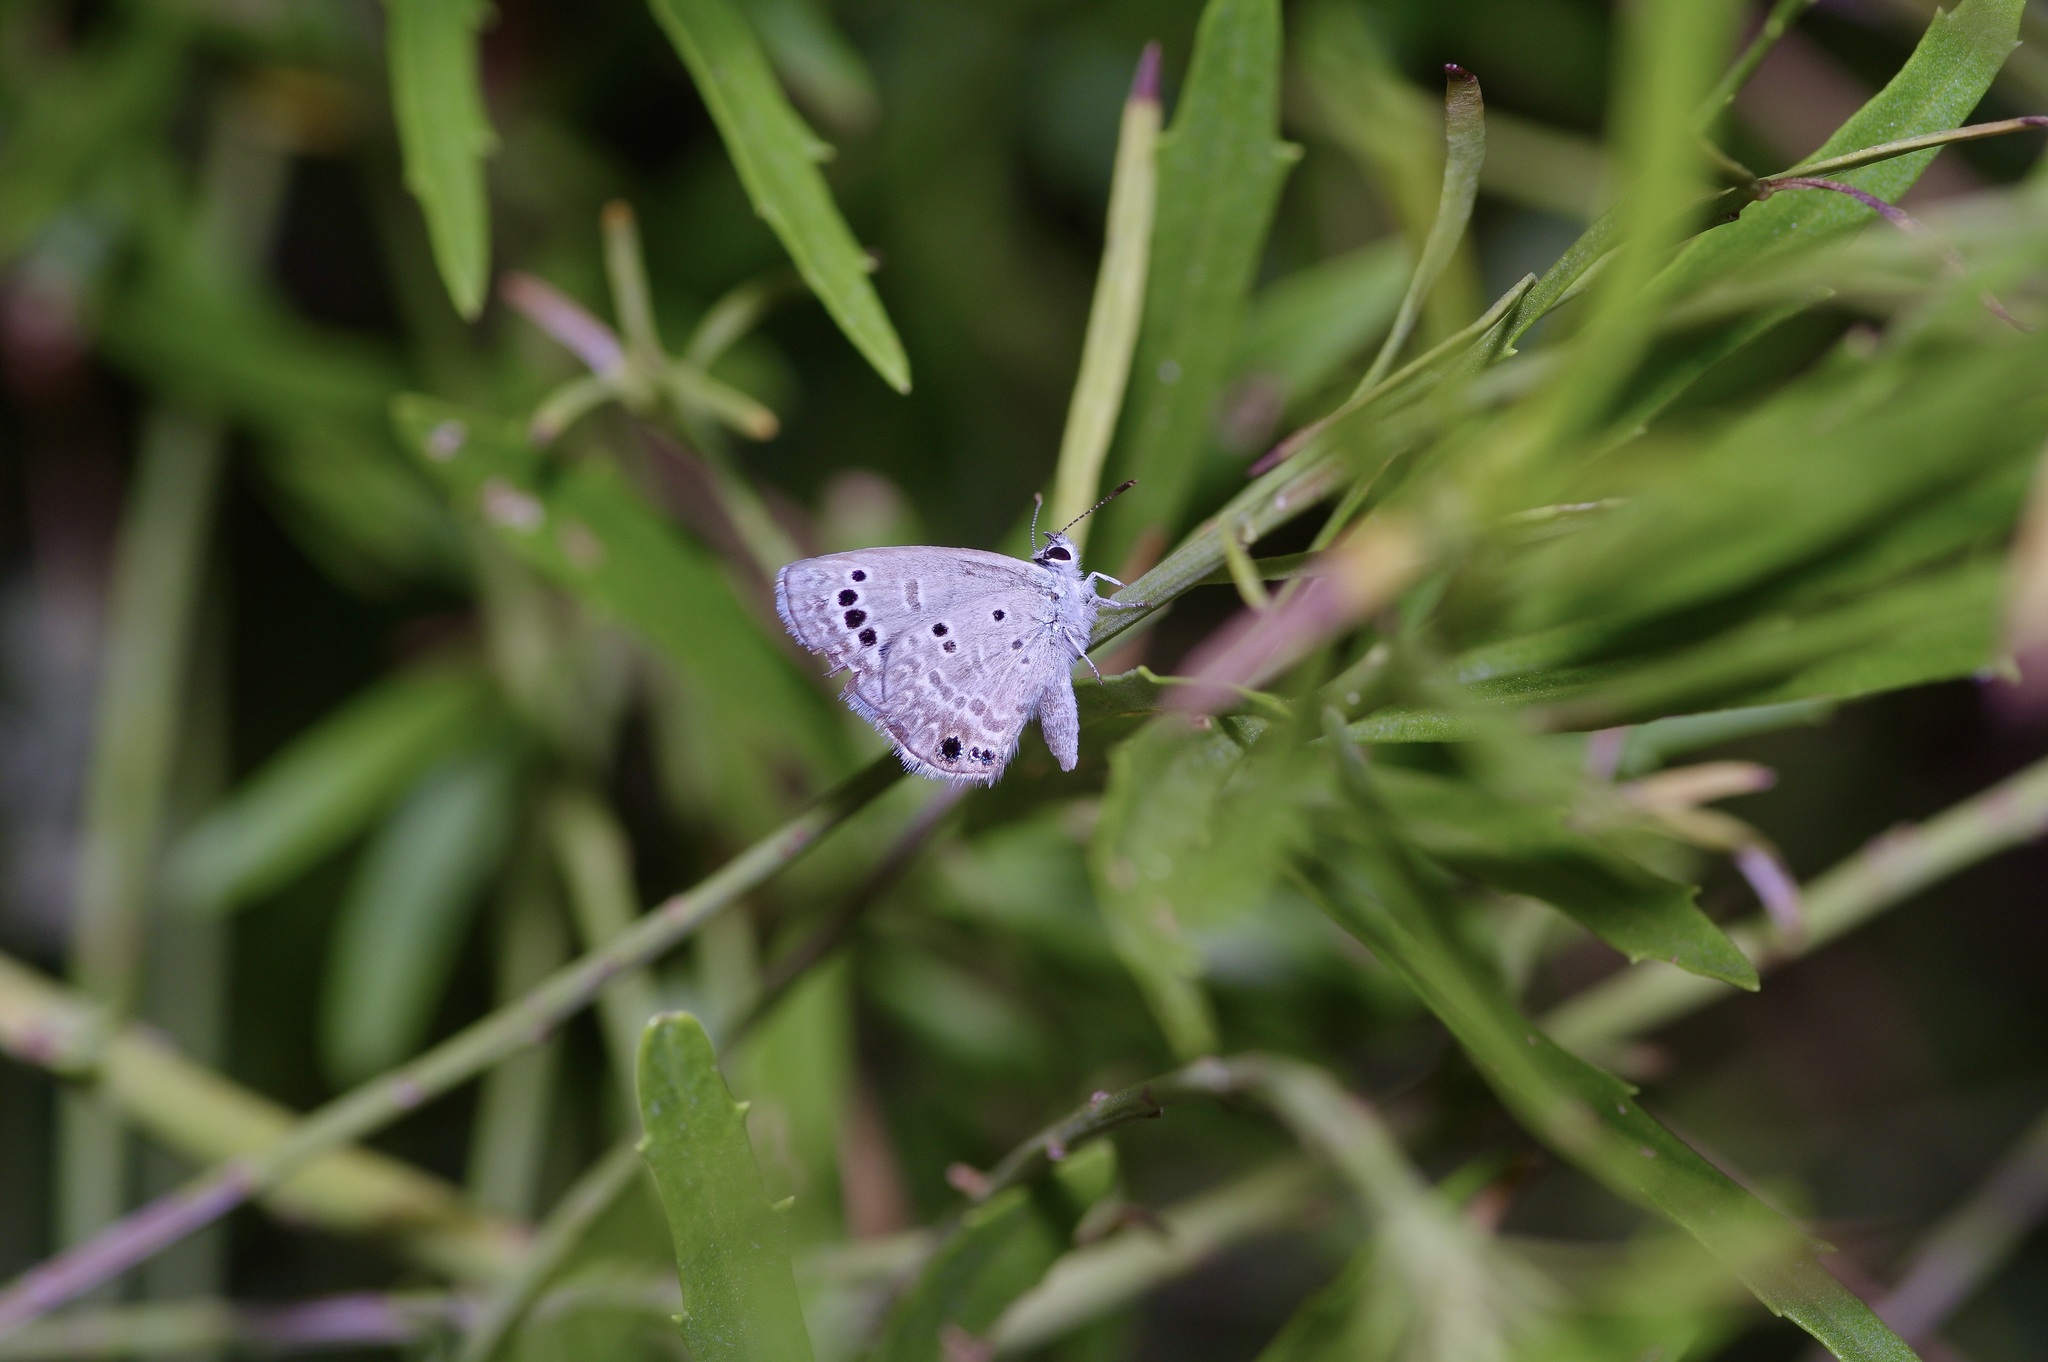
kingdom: Animalia
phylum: Arthropoda
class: Insecta
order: Lepidoptera
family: Lycaenidae
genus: Echinargus
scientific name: Echinargus isola
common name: Reakirt's blue
